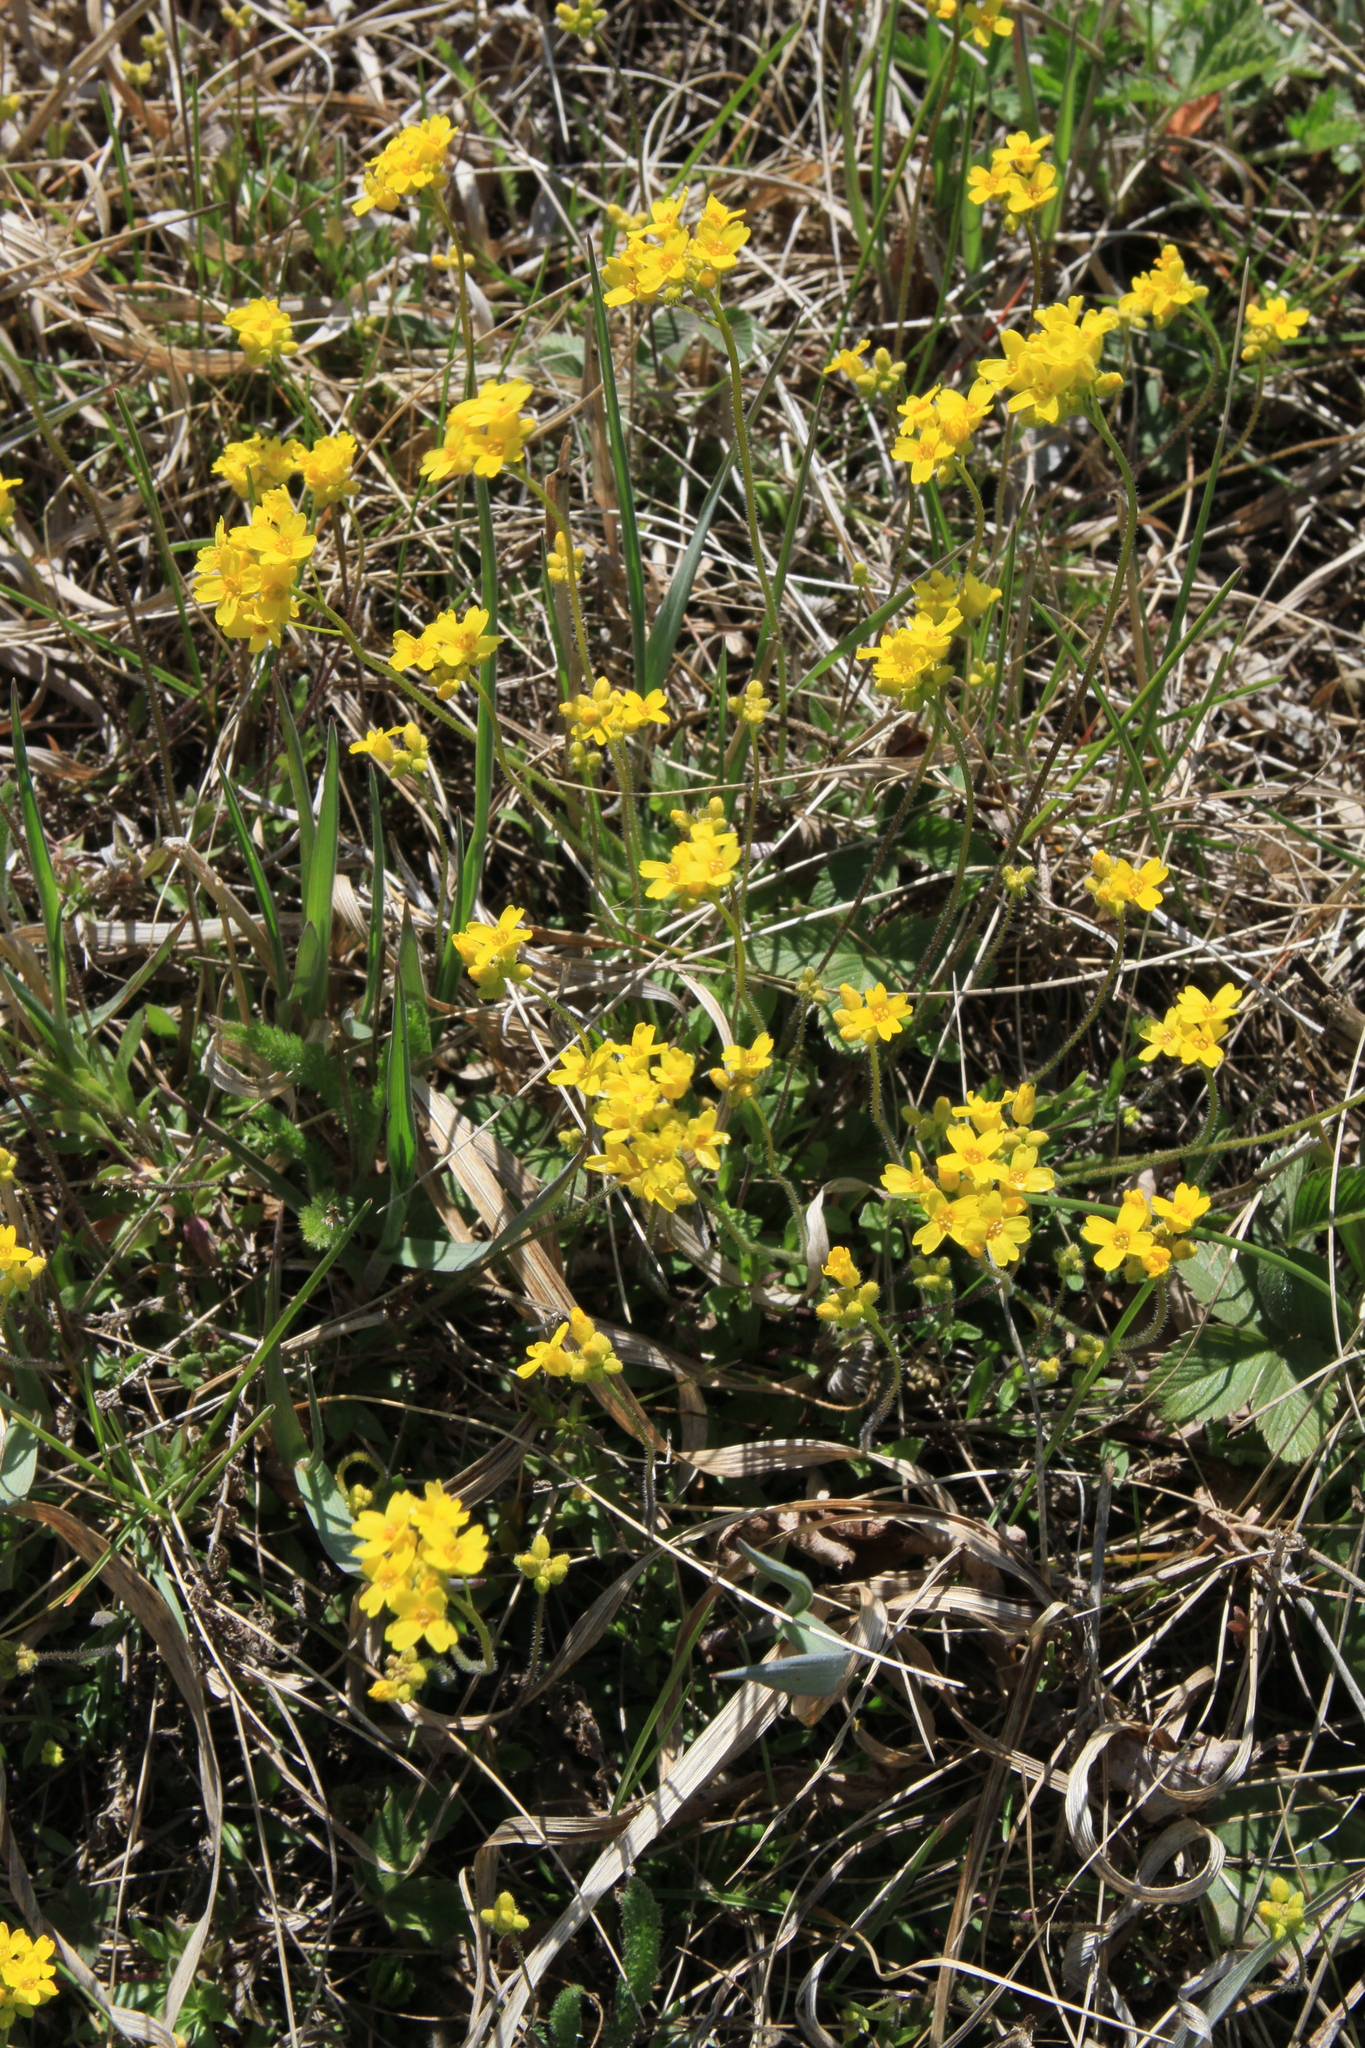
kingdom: Plantae
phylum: Tracheophyta
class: Magnoliopsida
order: Brassicales
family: Brassicaceae
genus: Draba
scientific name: Draba sibirica
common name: Siberian draba
